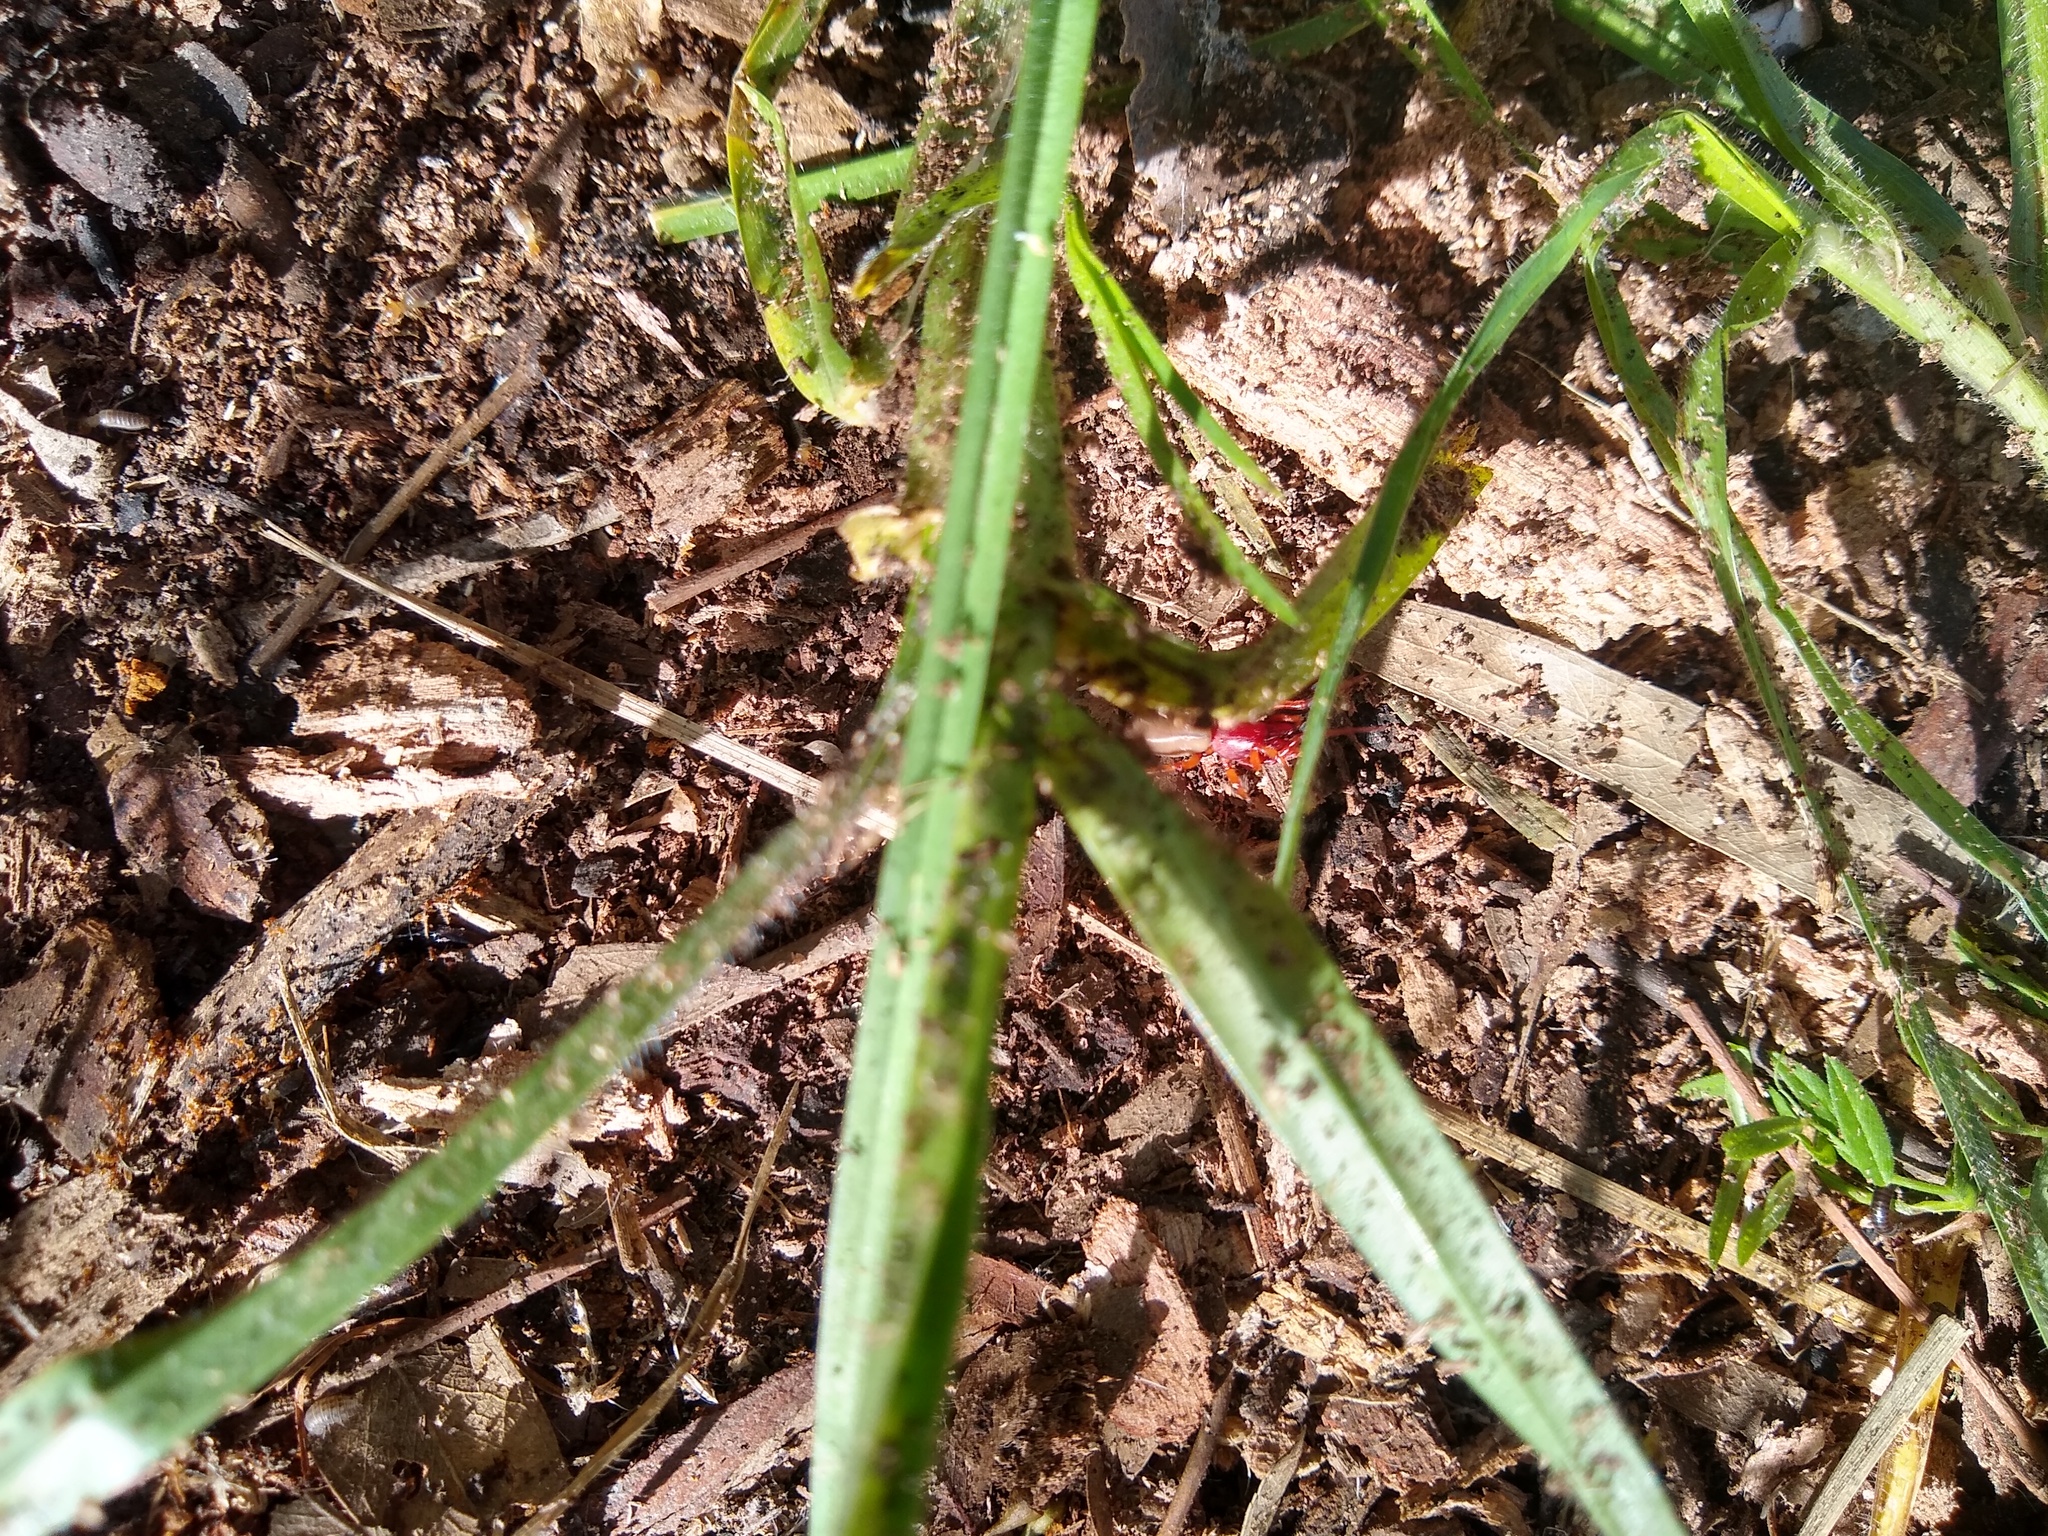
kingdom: Animalia
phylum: Arthropoda
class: Arachnida
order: Araneae
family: Dysderidae
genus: Dysdera
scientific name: Dysdera crocata
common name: Woodlouse spider
